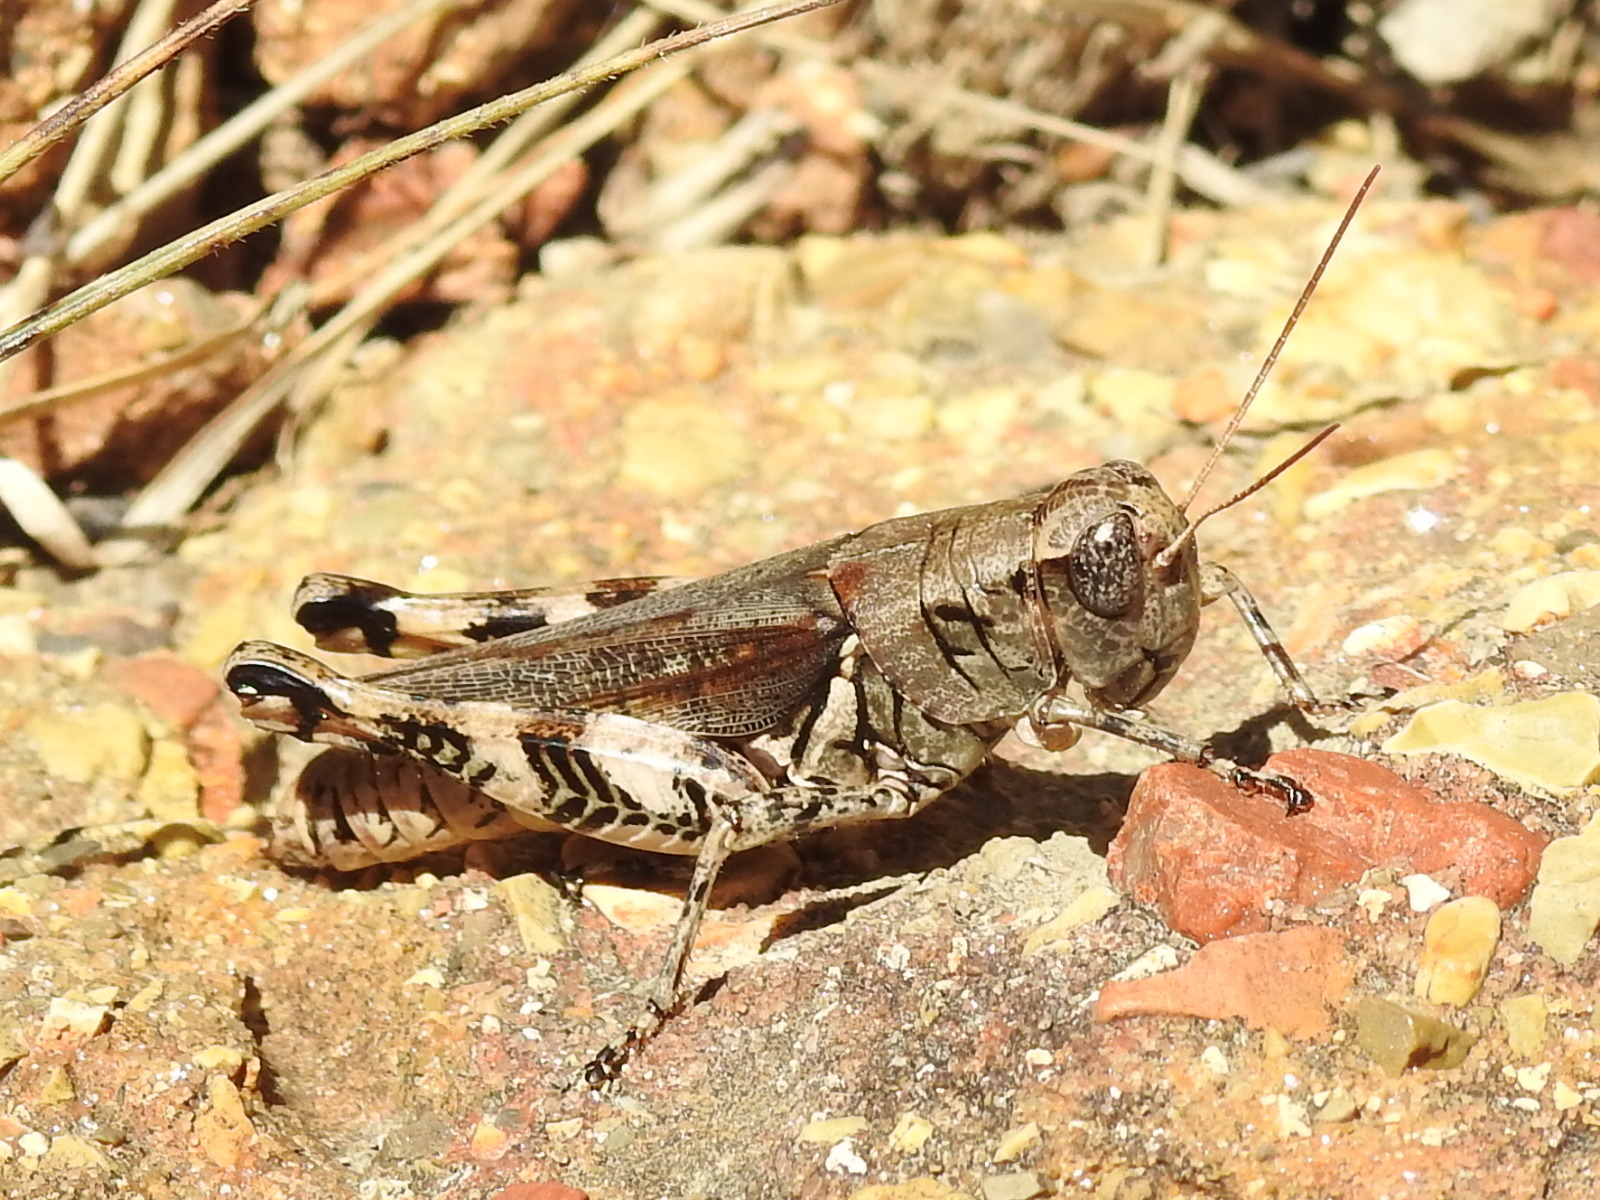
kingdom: Animalia
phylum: Arthropoda
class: Insecta
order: Orthoptera
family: Acrididae
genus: Melanoplus
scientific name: Melanoplus ponderosus
